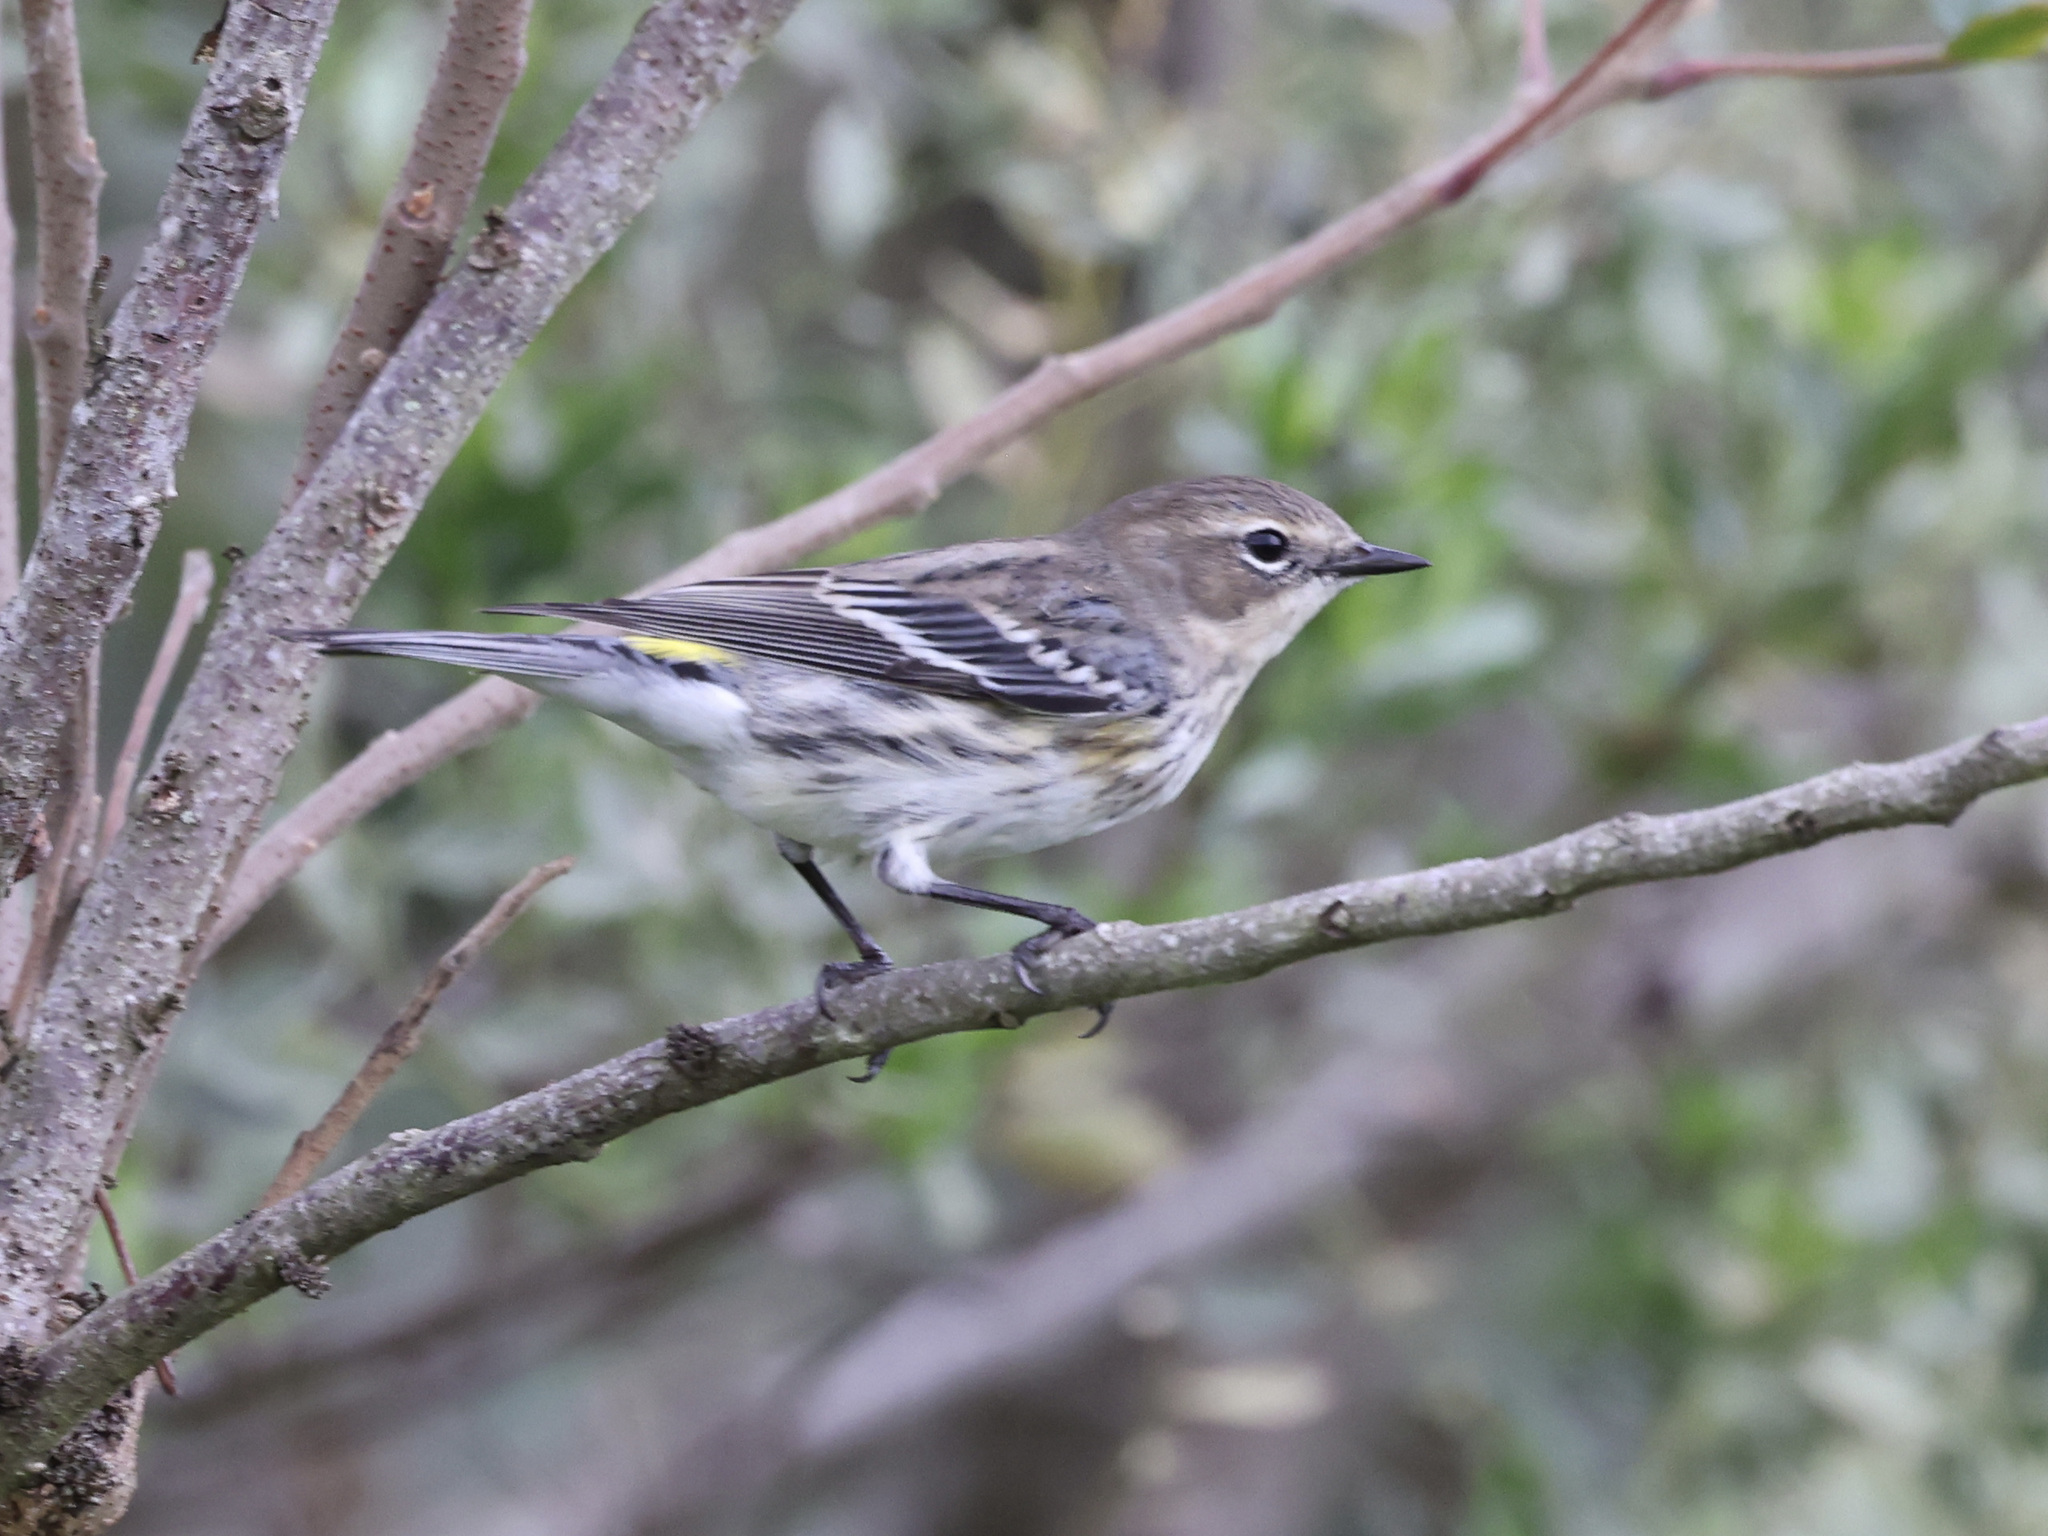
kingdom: Animalia
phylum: Chordata
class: Aves
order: Passeriformes
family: Parulidae
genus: Setophaga
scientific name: Setophaga coronata
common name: Myrtle warbler
